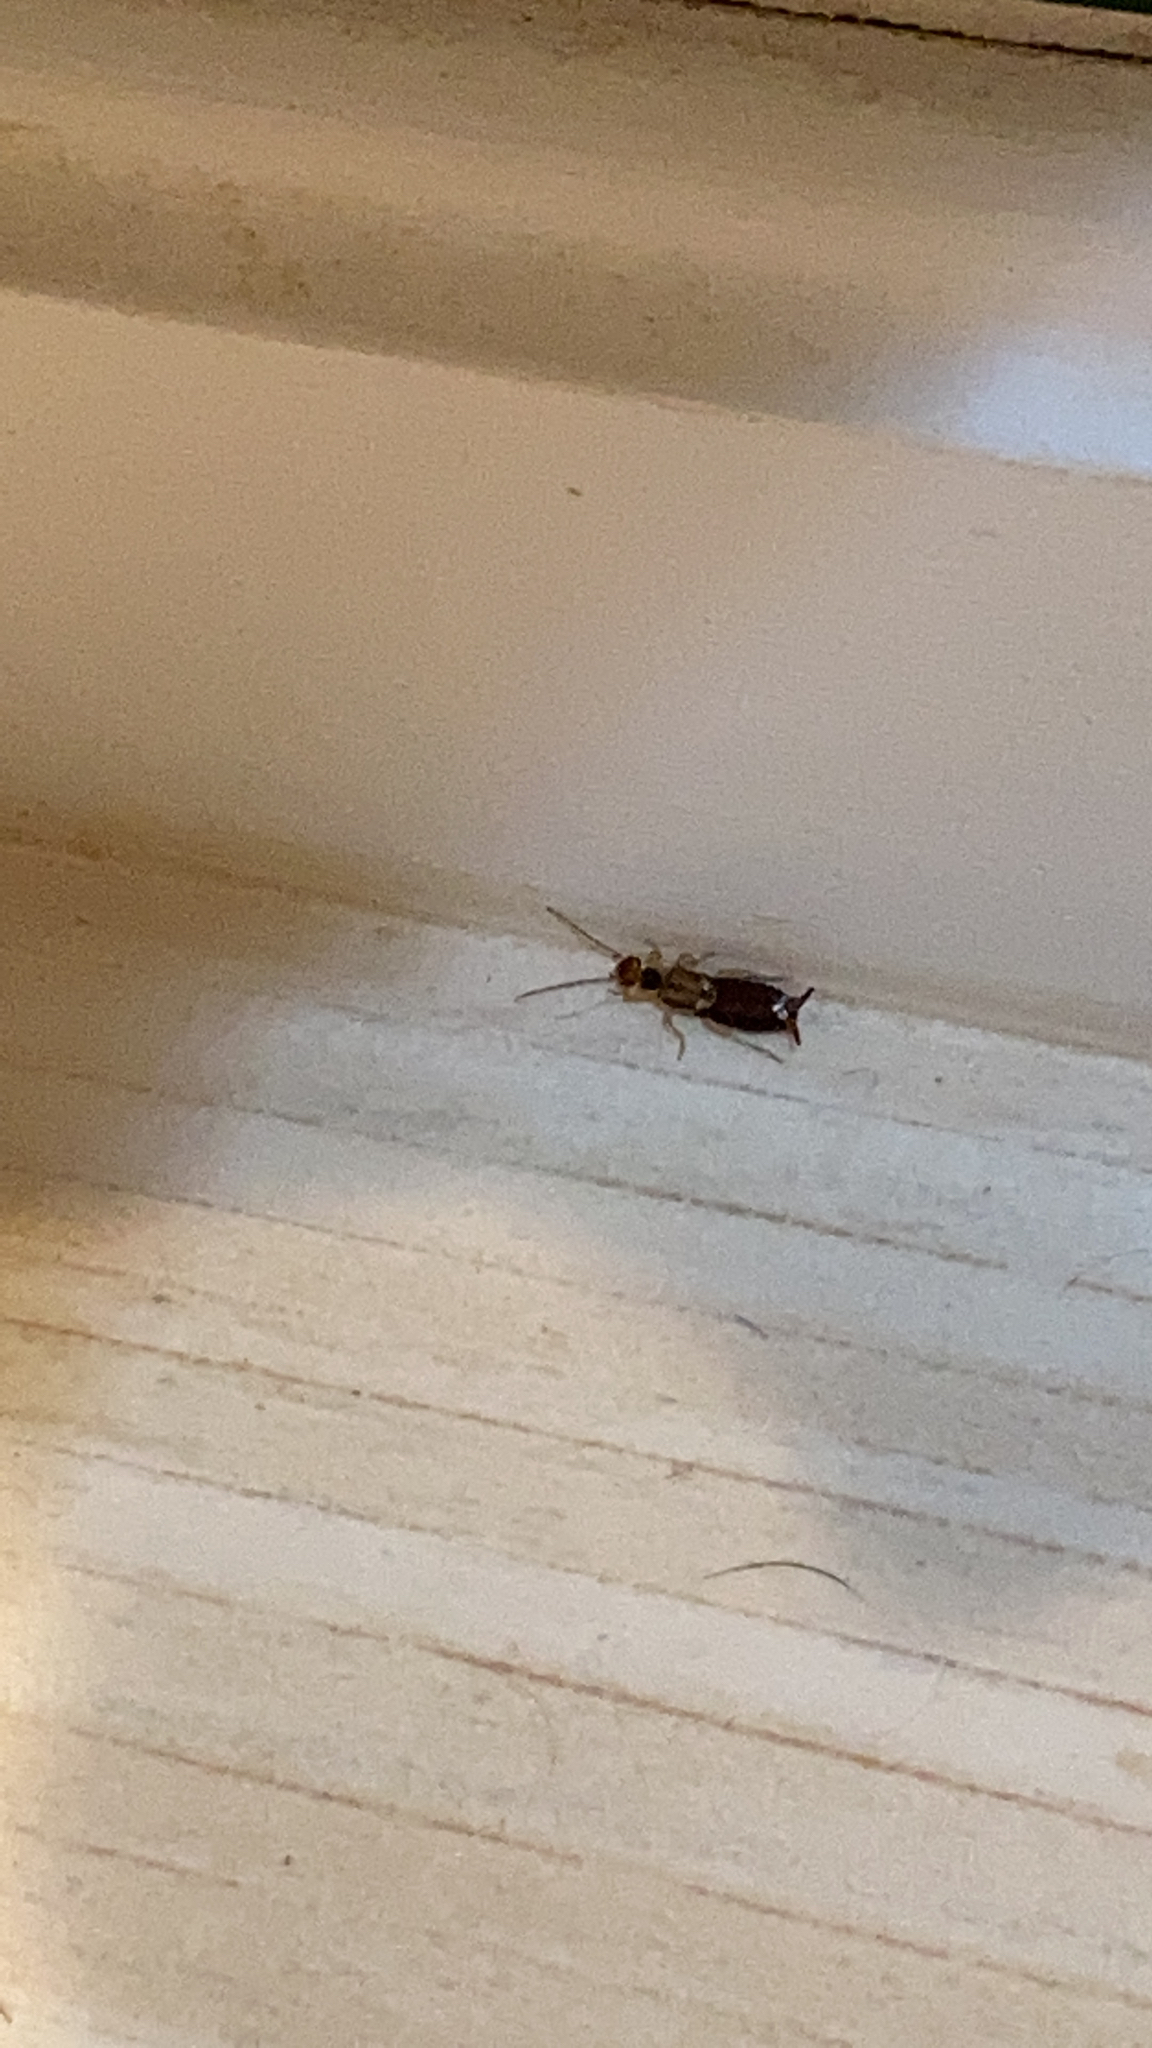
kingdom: Animalia
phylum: Arthropoda
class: Insecta
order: Dermaptera
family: Forficulidae
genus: Forficula
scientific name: Forficula
